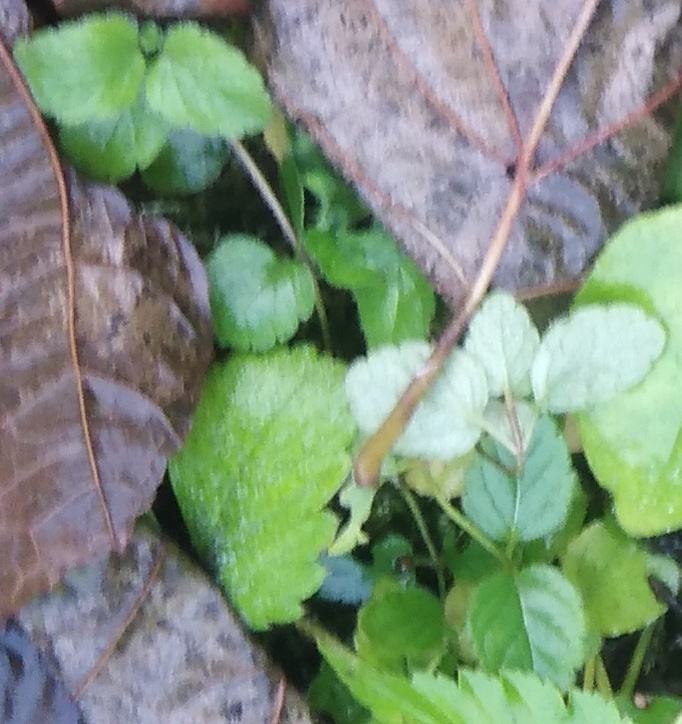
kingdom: Plantae
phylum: Tracheophyta
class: Magnoliopsida
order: Lamiales
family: Plantaginaceae
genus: Veronica
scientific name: Veronica chamaedrys
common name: Germander speedwell
